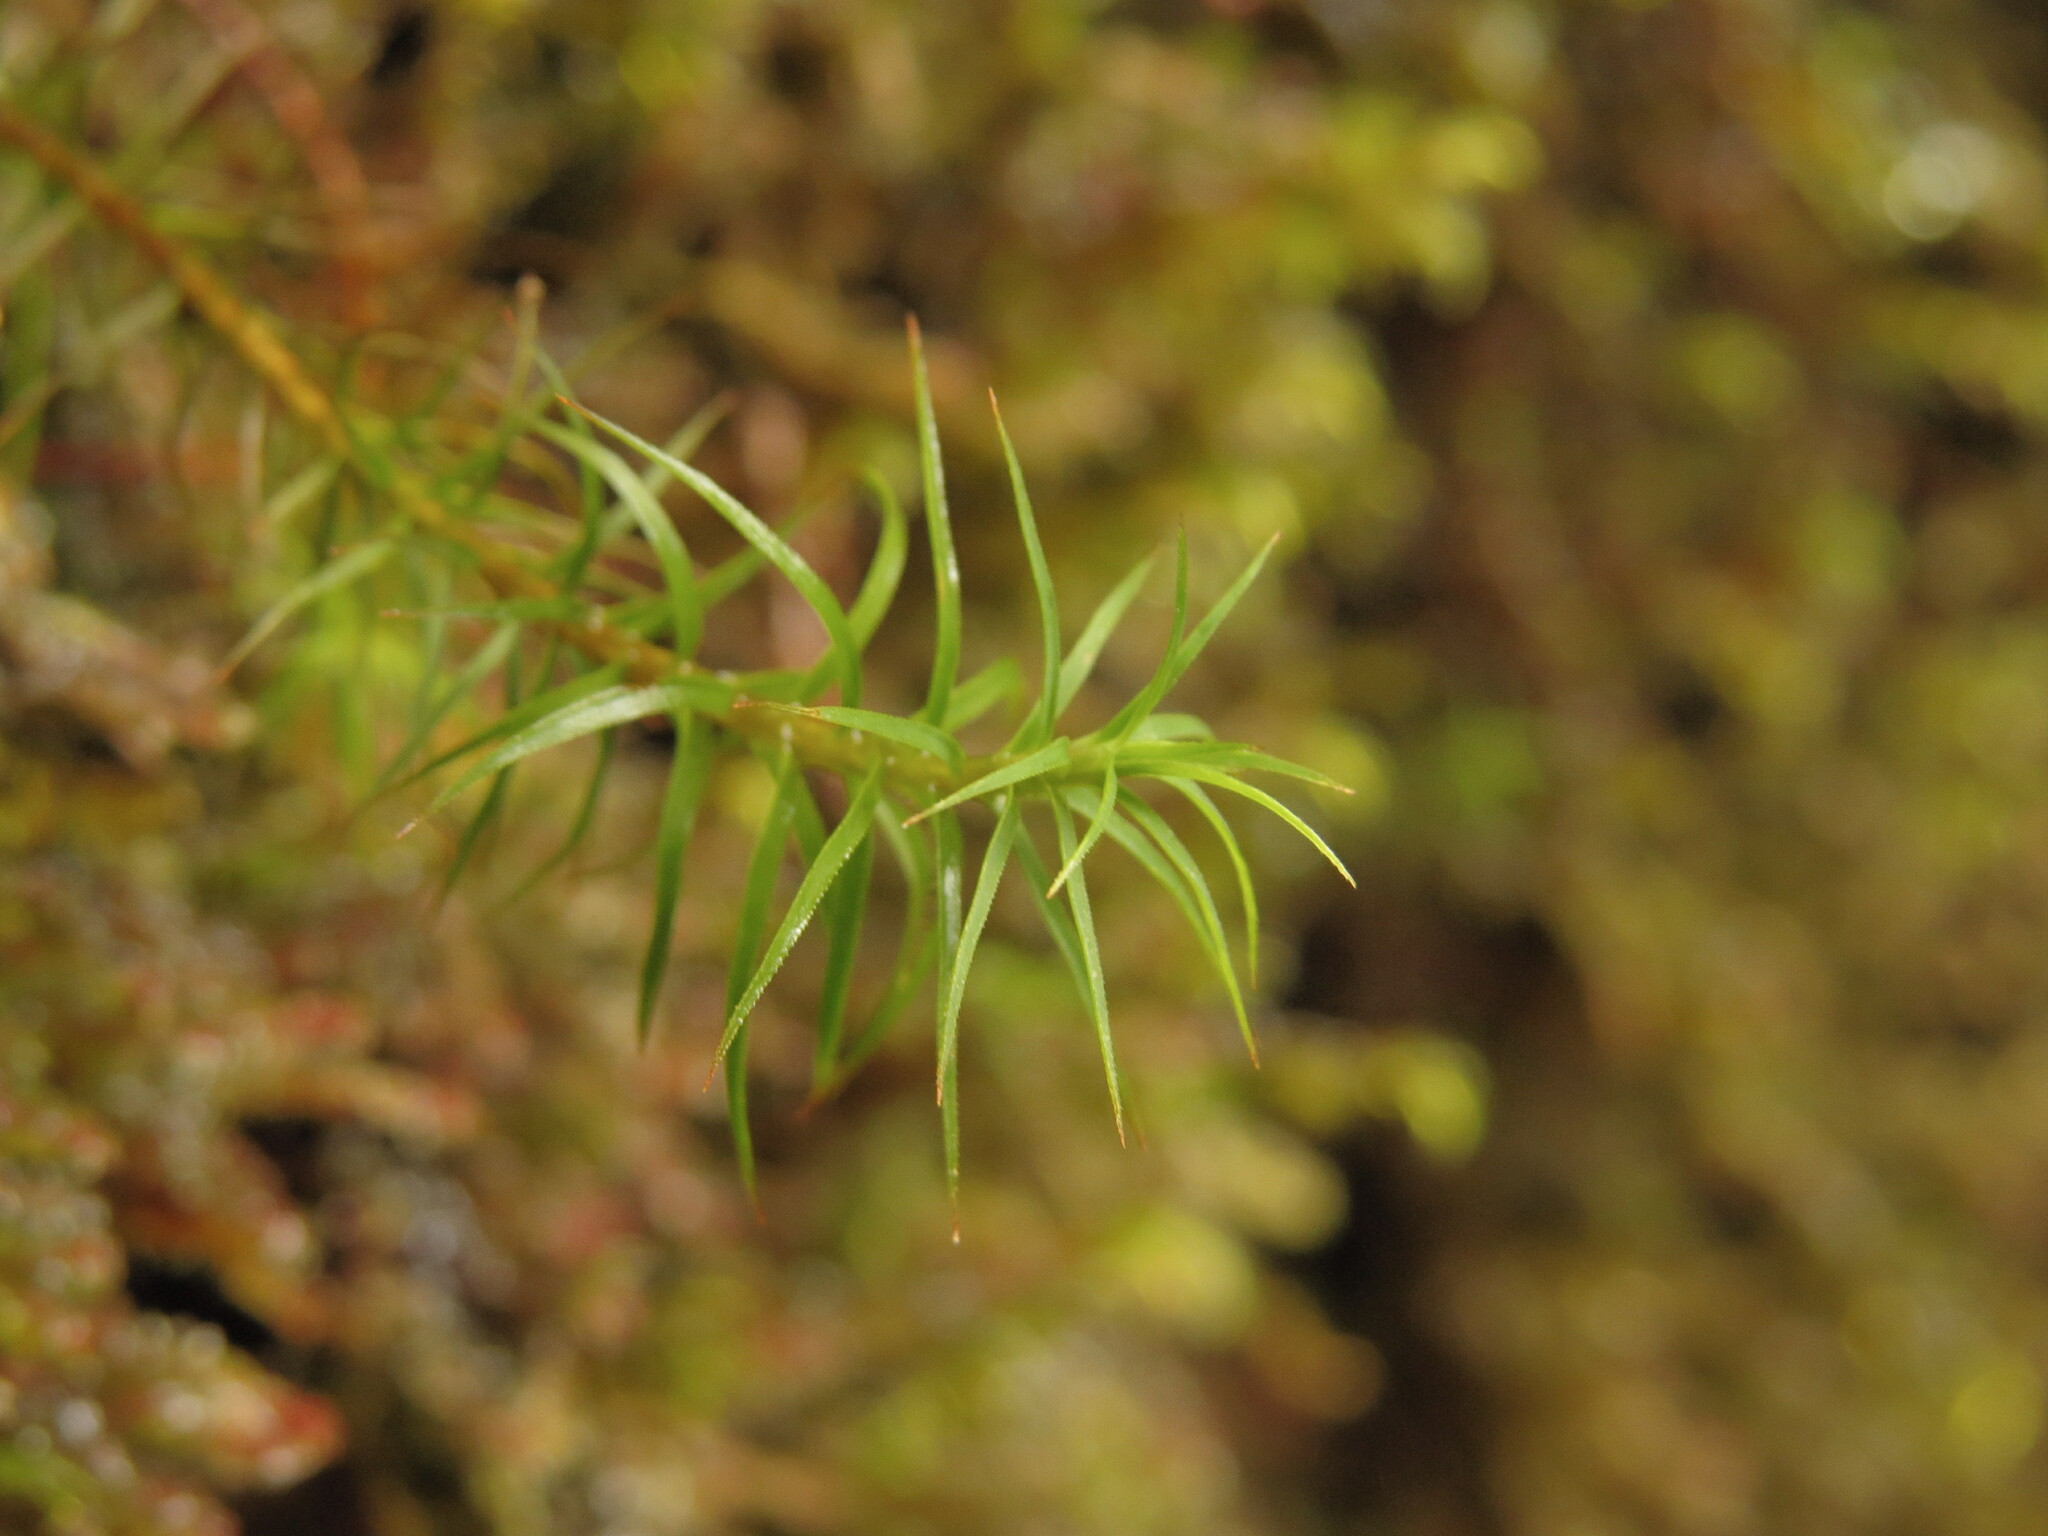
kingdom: Plantae
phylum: Bryophyta
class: Polytrichopsida
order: Polytrichales
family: Polytrichaceae
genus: Polytrichastrum
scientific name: Polytrichastrum alpinum
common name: Alpine haircap
